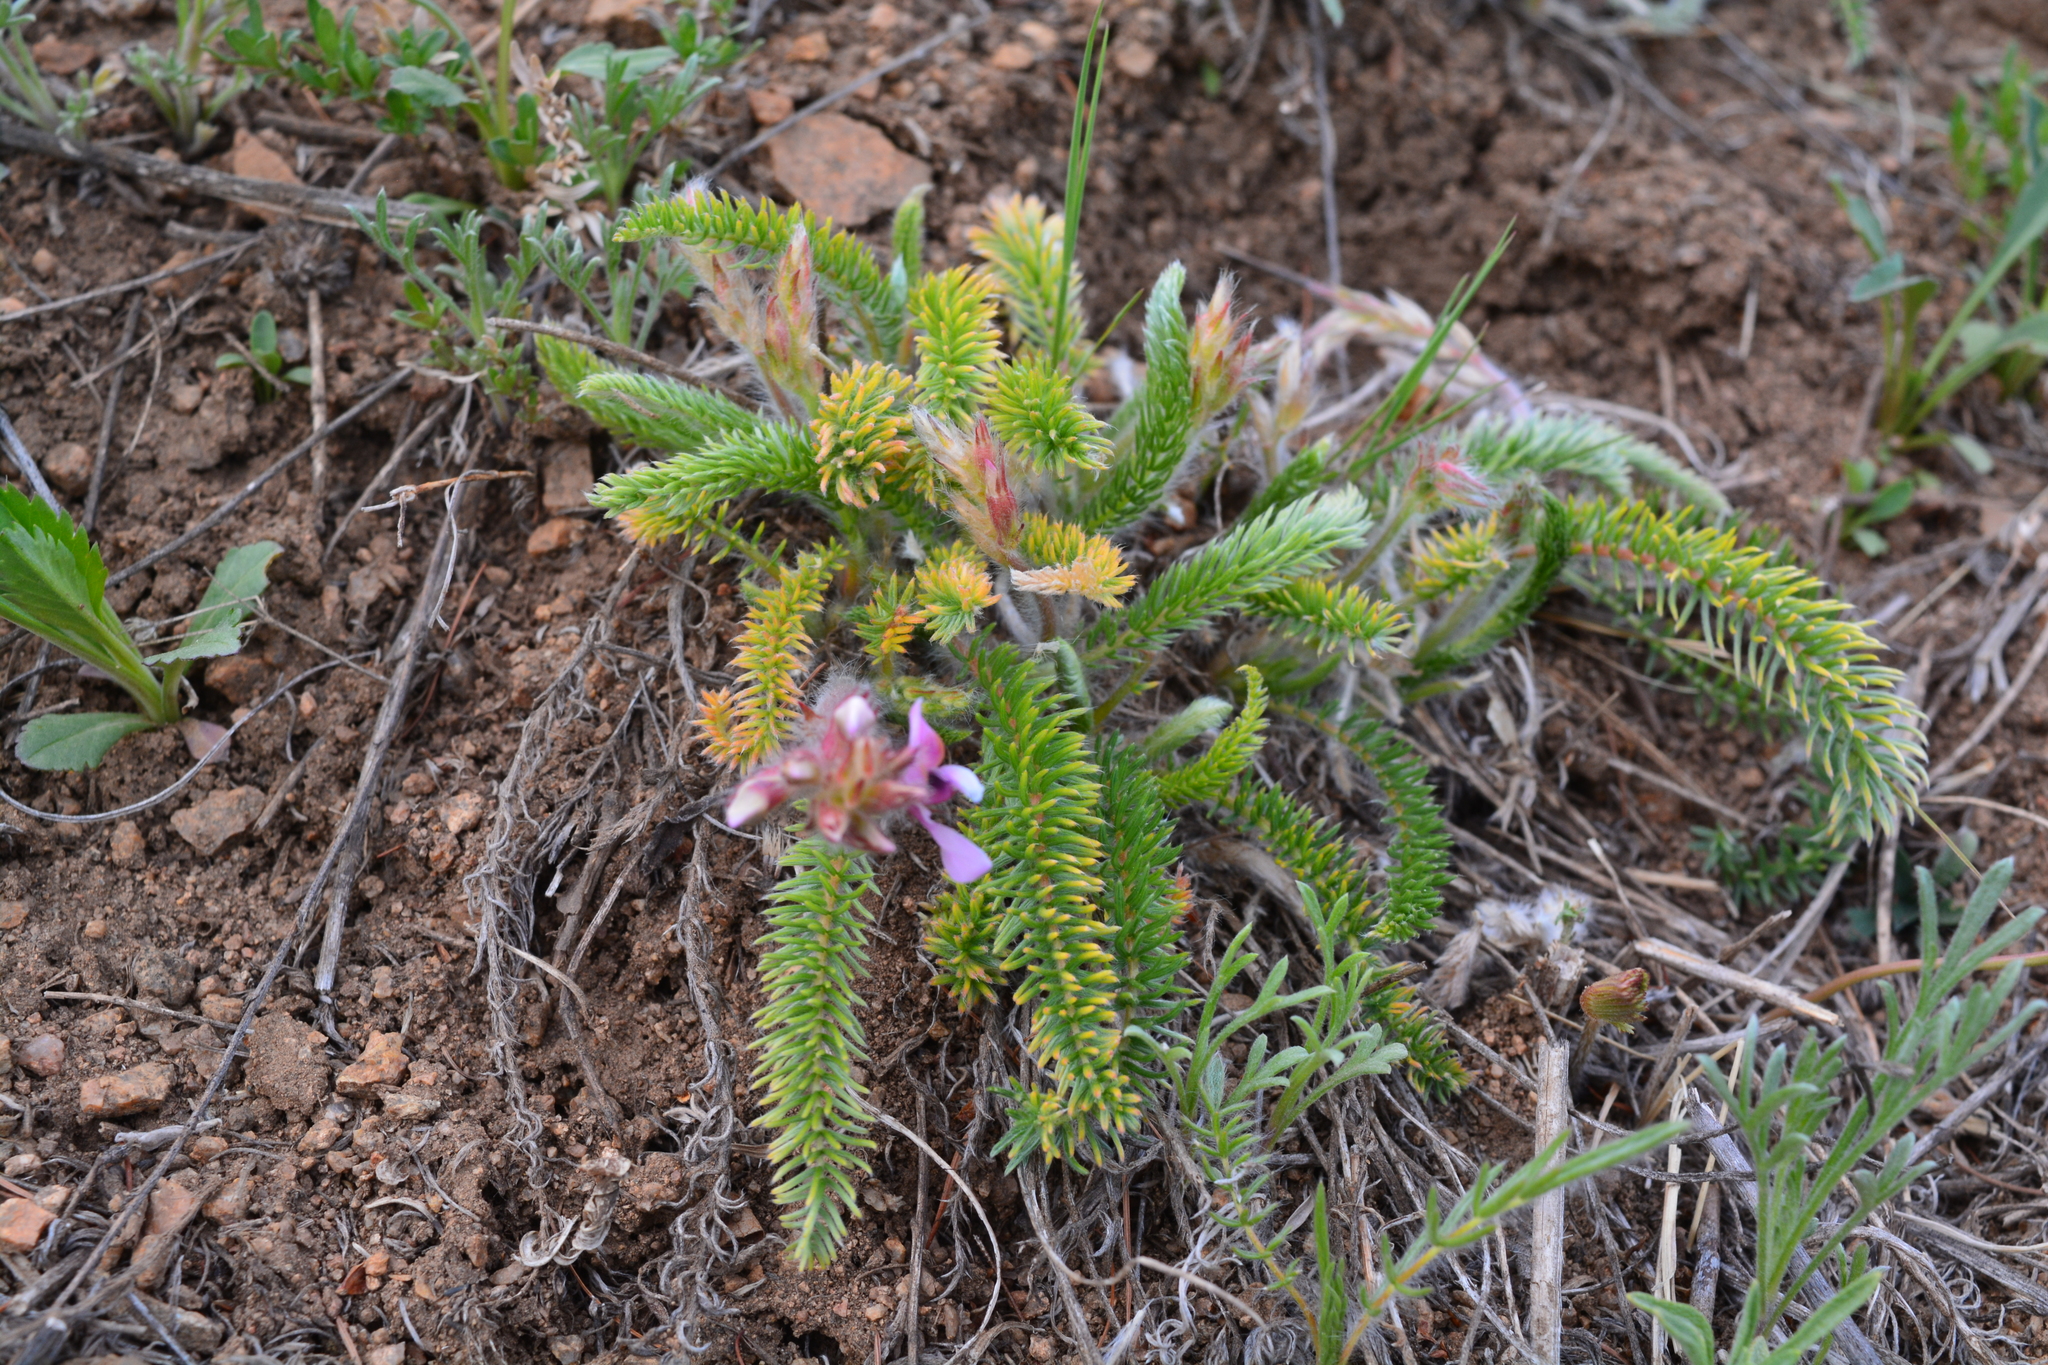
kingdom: Plantae
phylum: Tracheophyta
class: Magnoliopsida
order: Fabales
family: Fabaceae
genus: Oxytropis
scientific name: Oxytropis myriophylla
